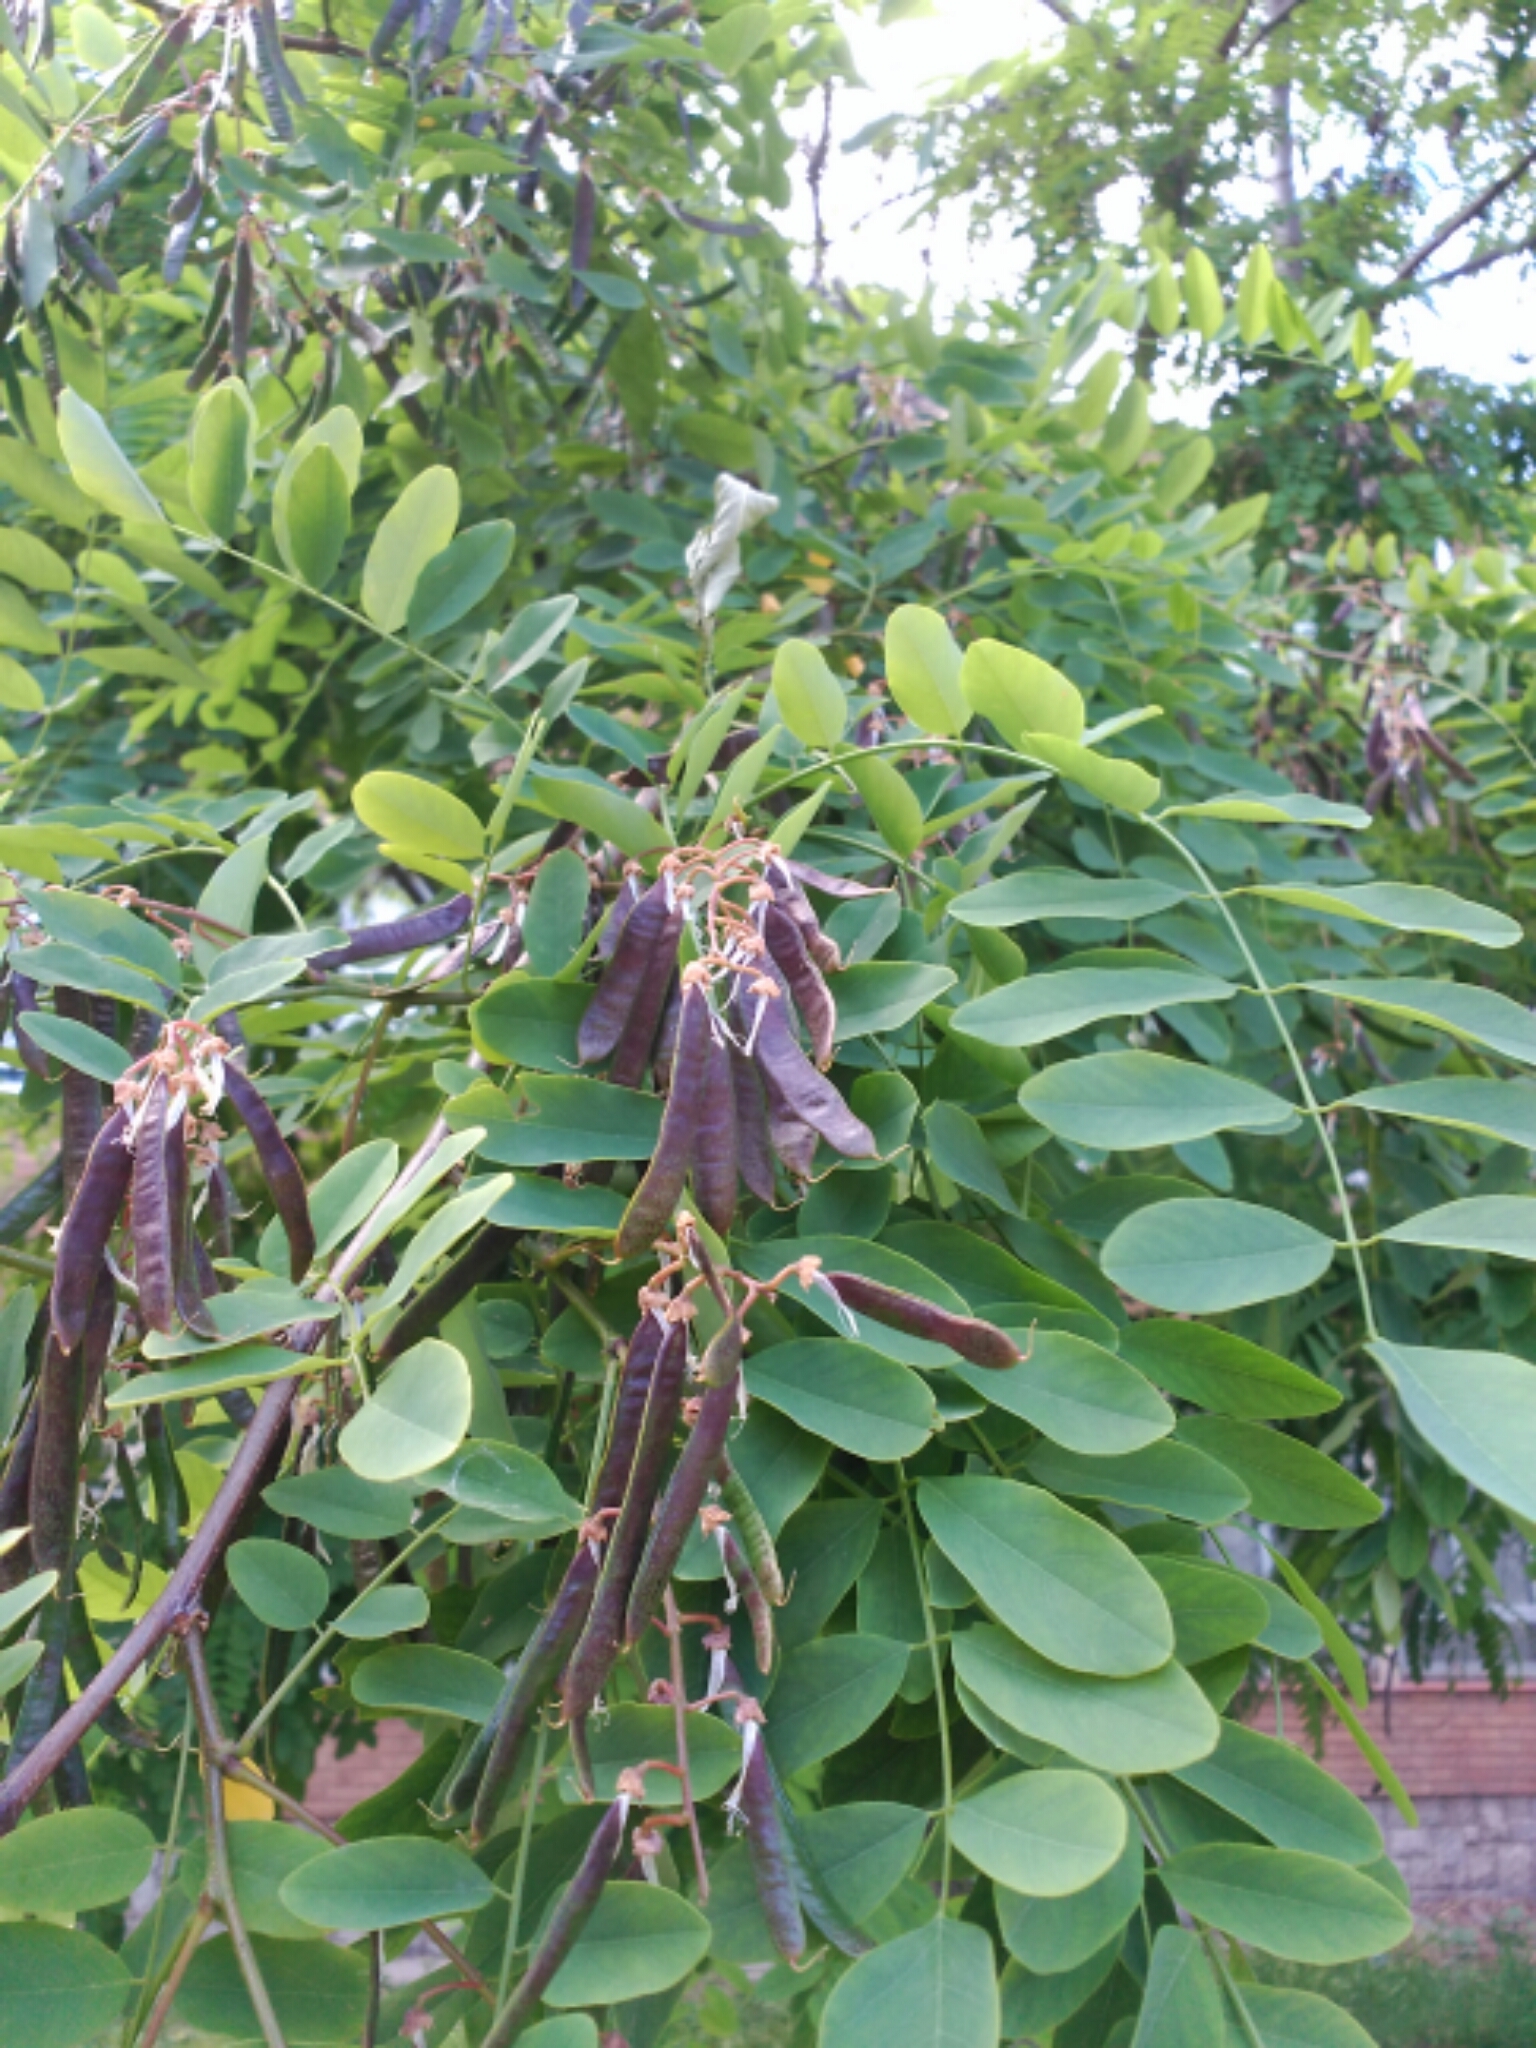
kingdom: Plantae
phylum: Tracheophyta
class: Magnoliopsida
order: Fabales
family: Fabaceae
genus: Robinia
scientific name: Robinia pseudoacacia
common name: Black locust
